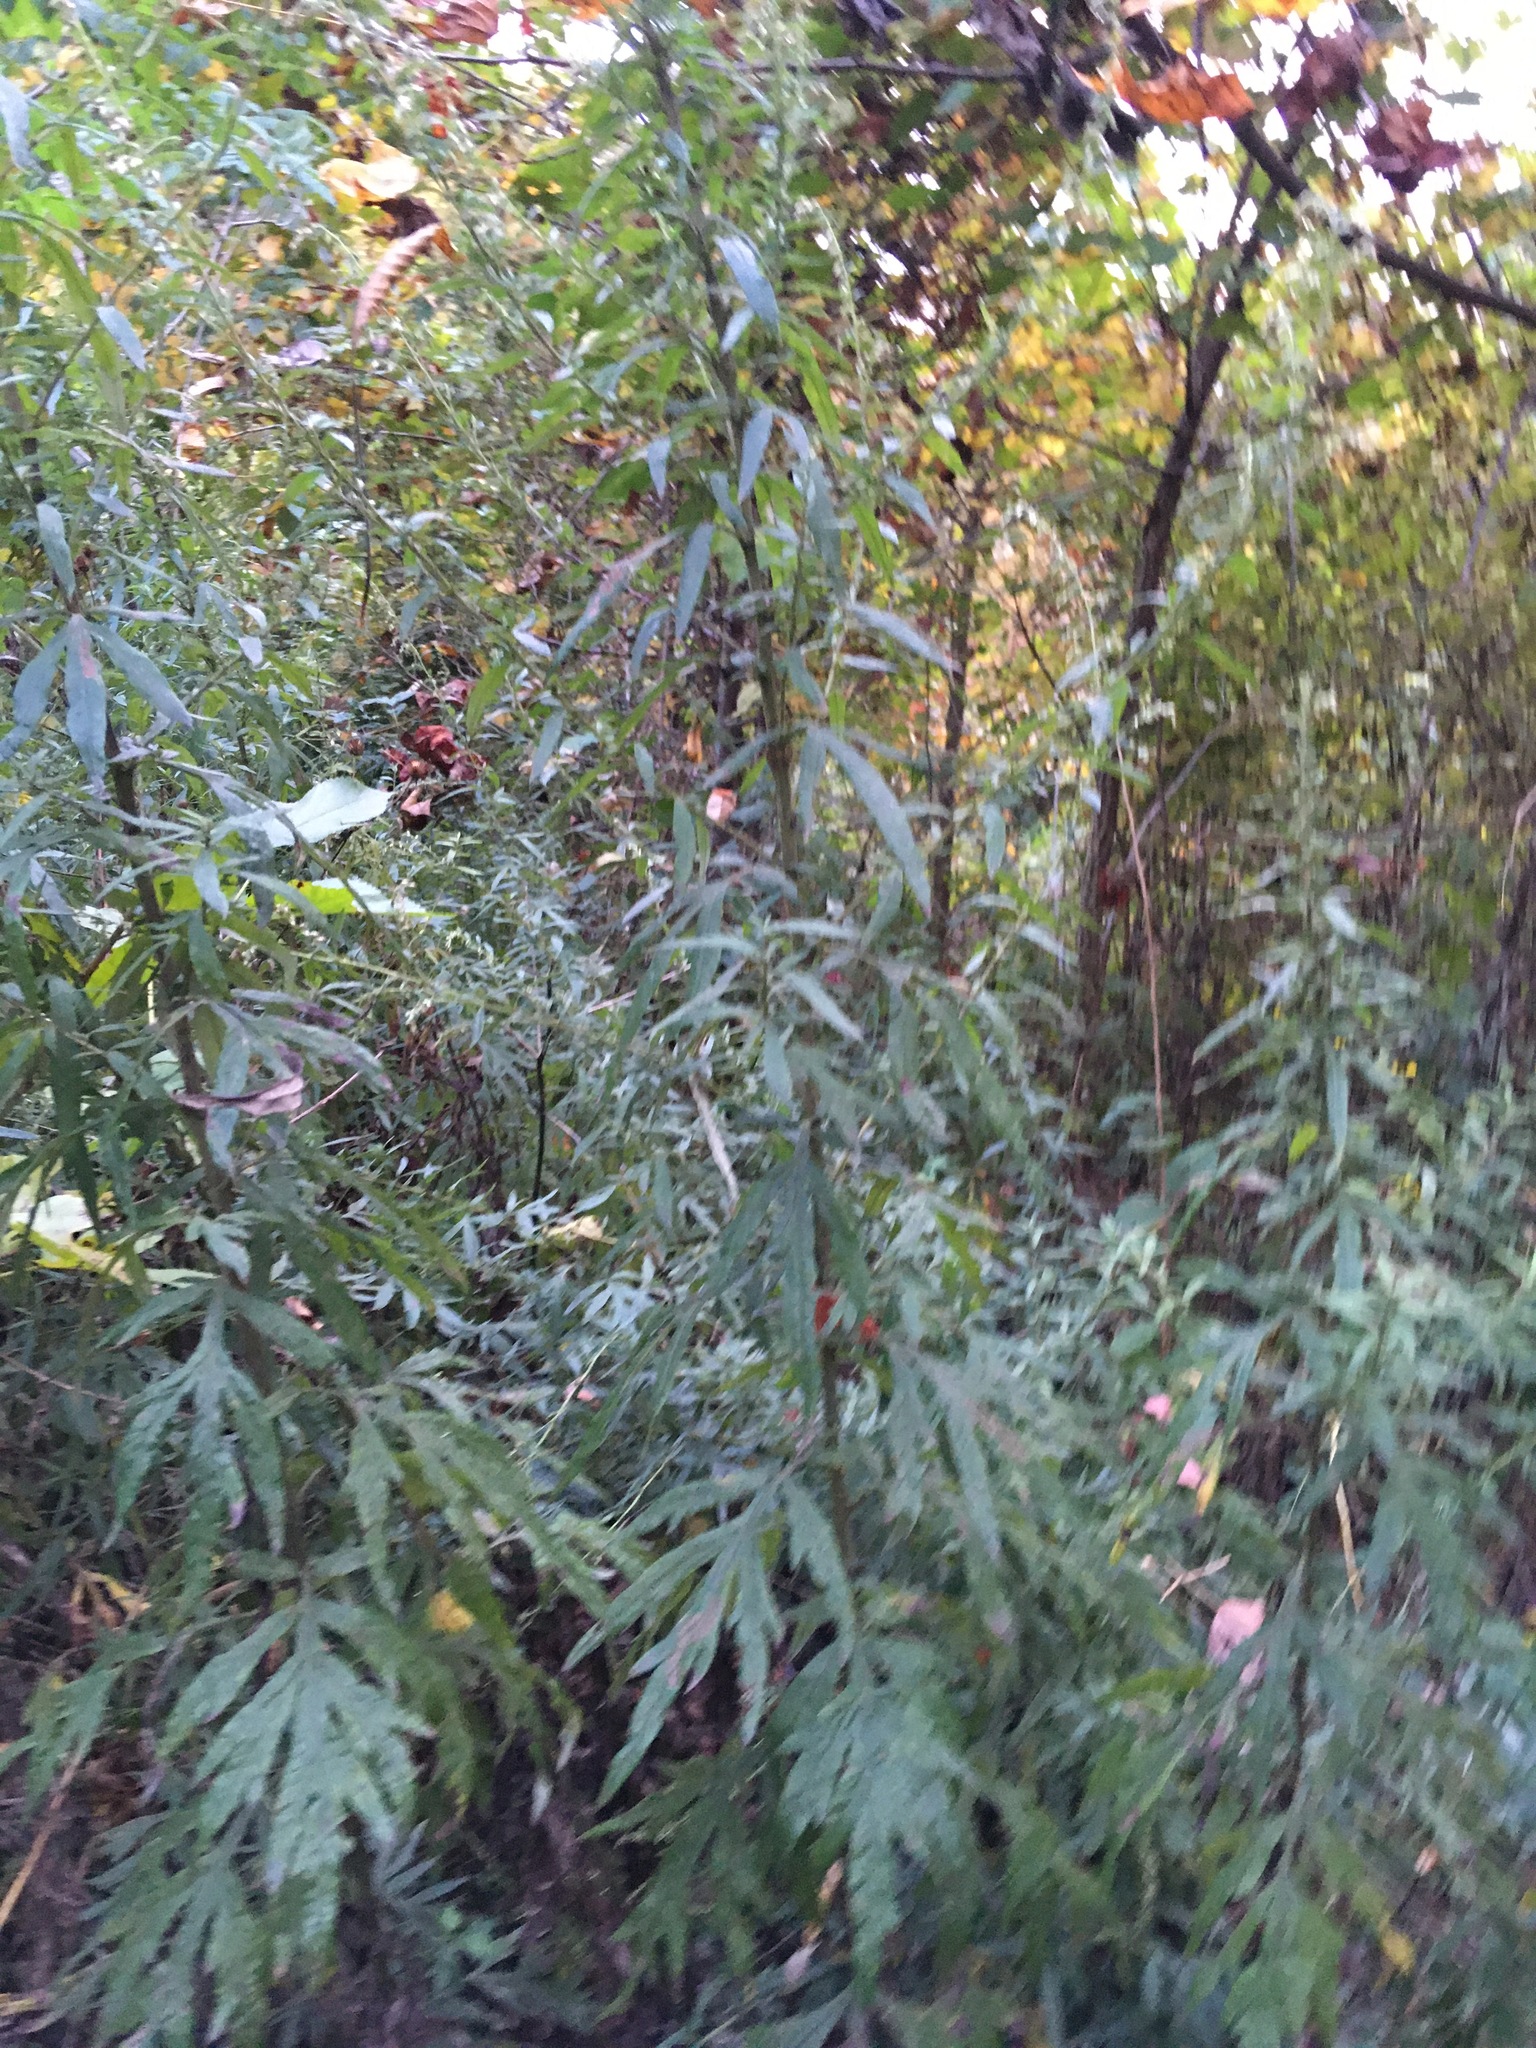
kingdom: Plantae
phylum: Tracheophyta
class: Magnoliopsida
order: Asterales
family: Asteraceae
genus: Artemisia
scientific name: Artemisia vulgaris
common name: Mugwort
